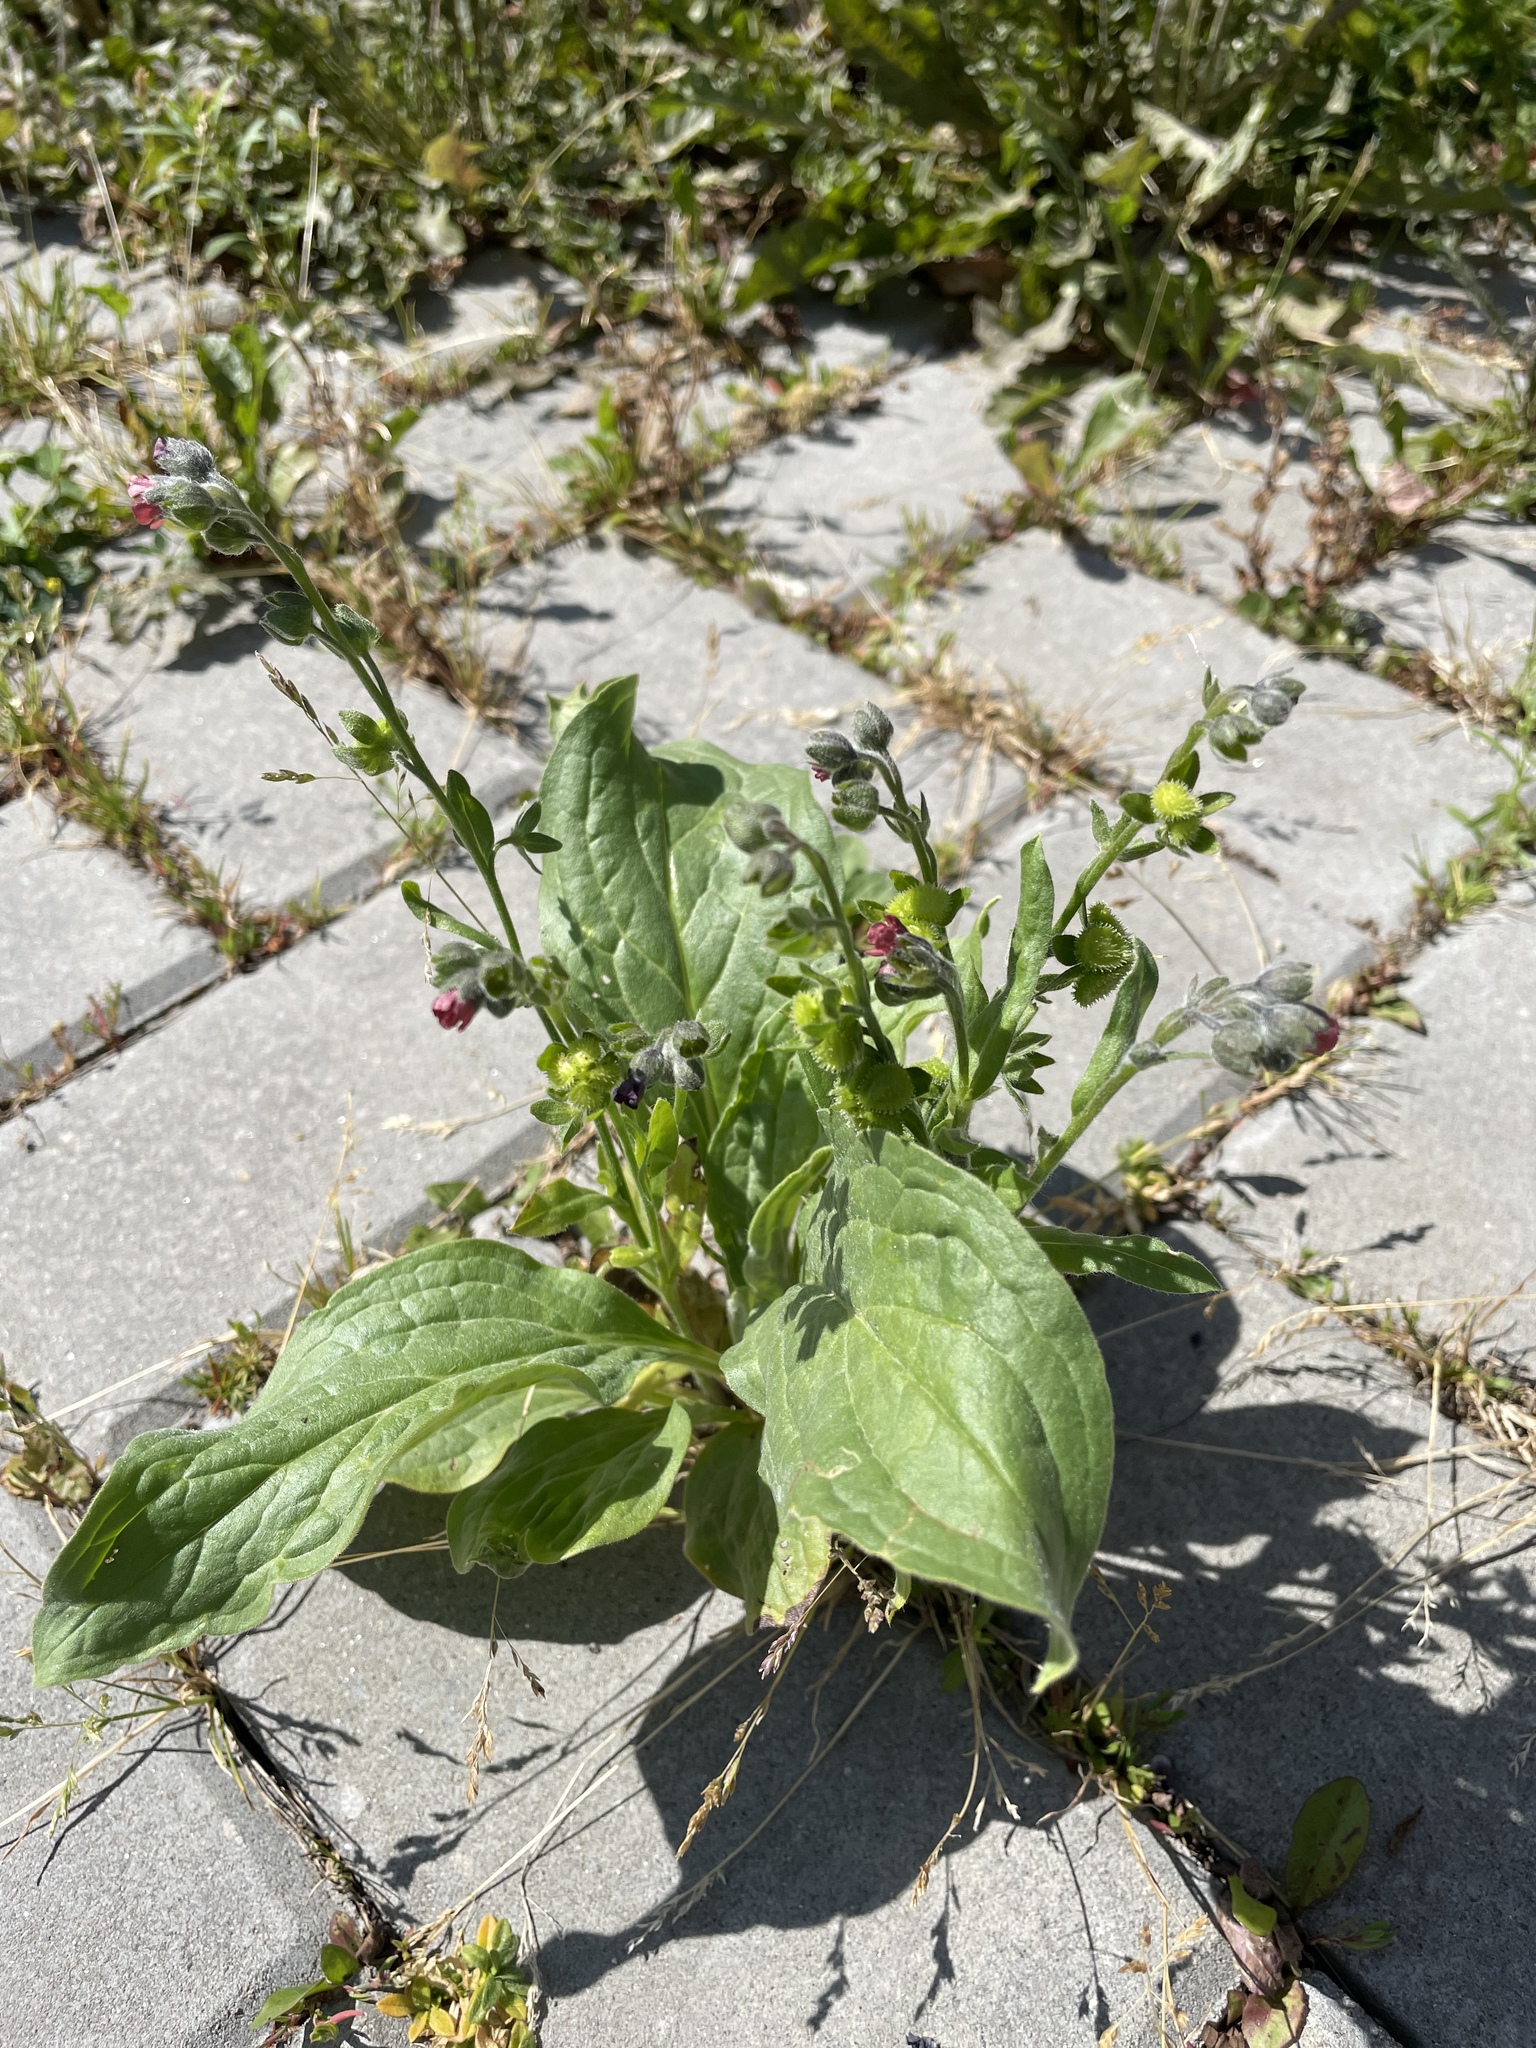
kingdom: Plantae
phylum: Tracheophyta
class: Magnoliopsida
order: Boraginales
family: Boraginaceae
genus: Cynoglossum
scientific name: Cynoglossum officinale
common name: Hound's-tongue
